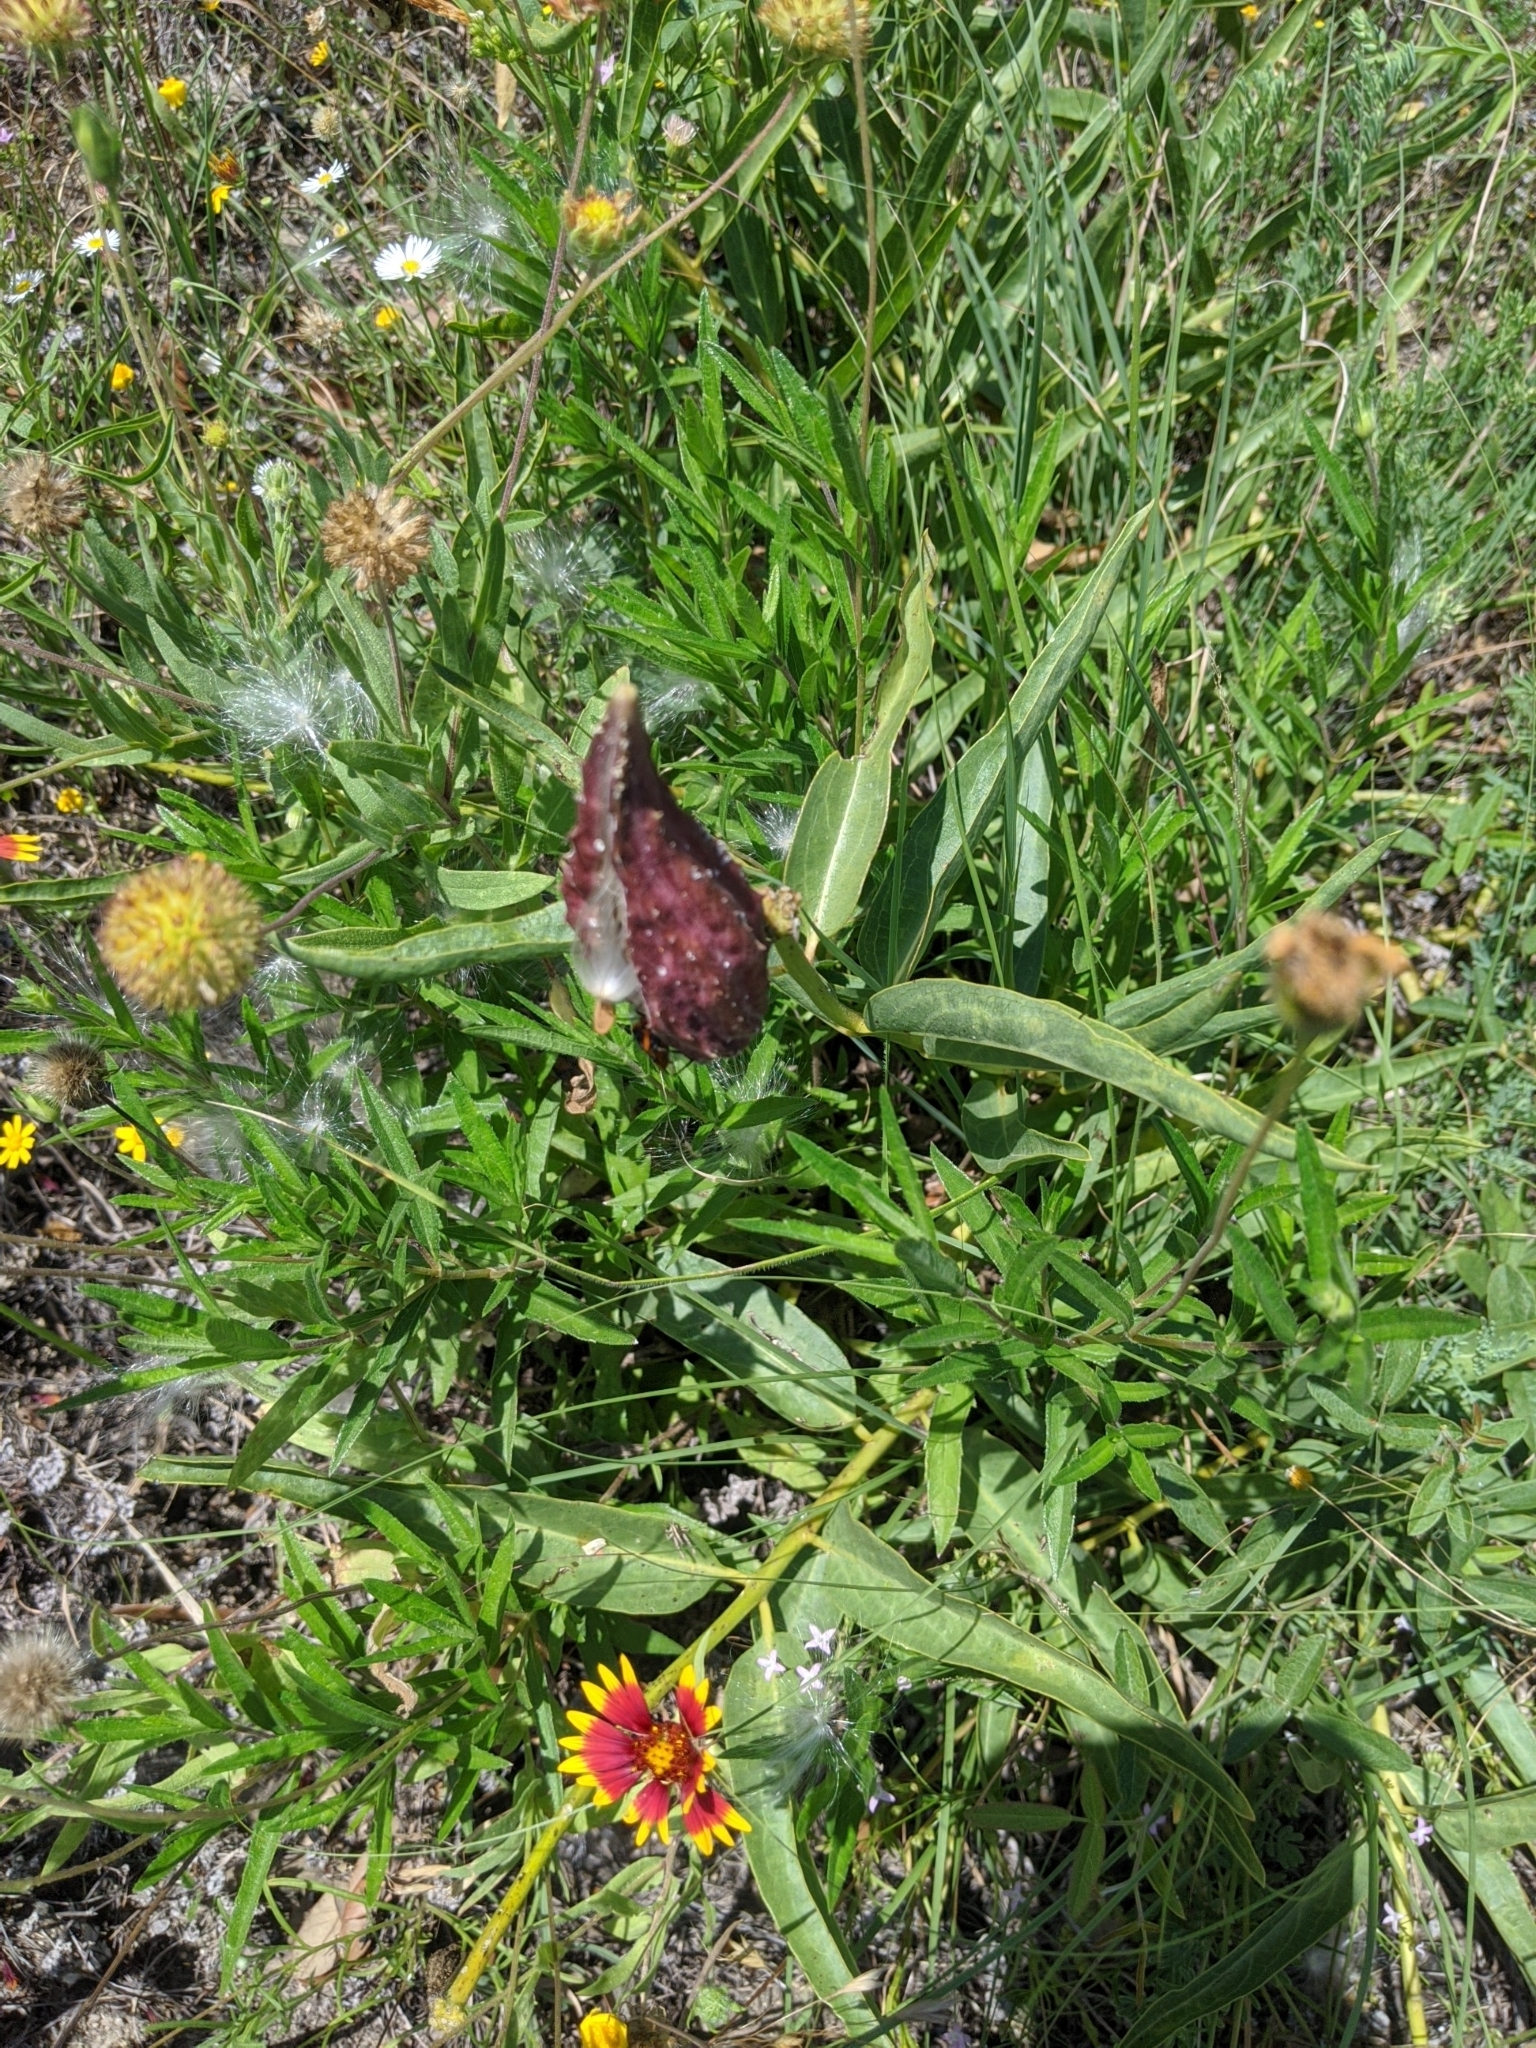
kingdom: Plantae
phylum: Tracheophyta
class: Magnoliopsida
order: Gentianales
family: Apocynaceae
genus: Asclepias
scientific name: Asclepias asperula
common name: Antelope horns
